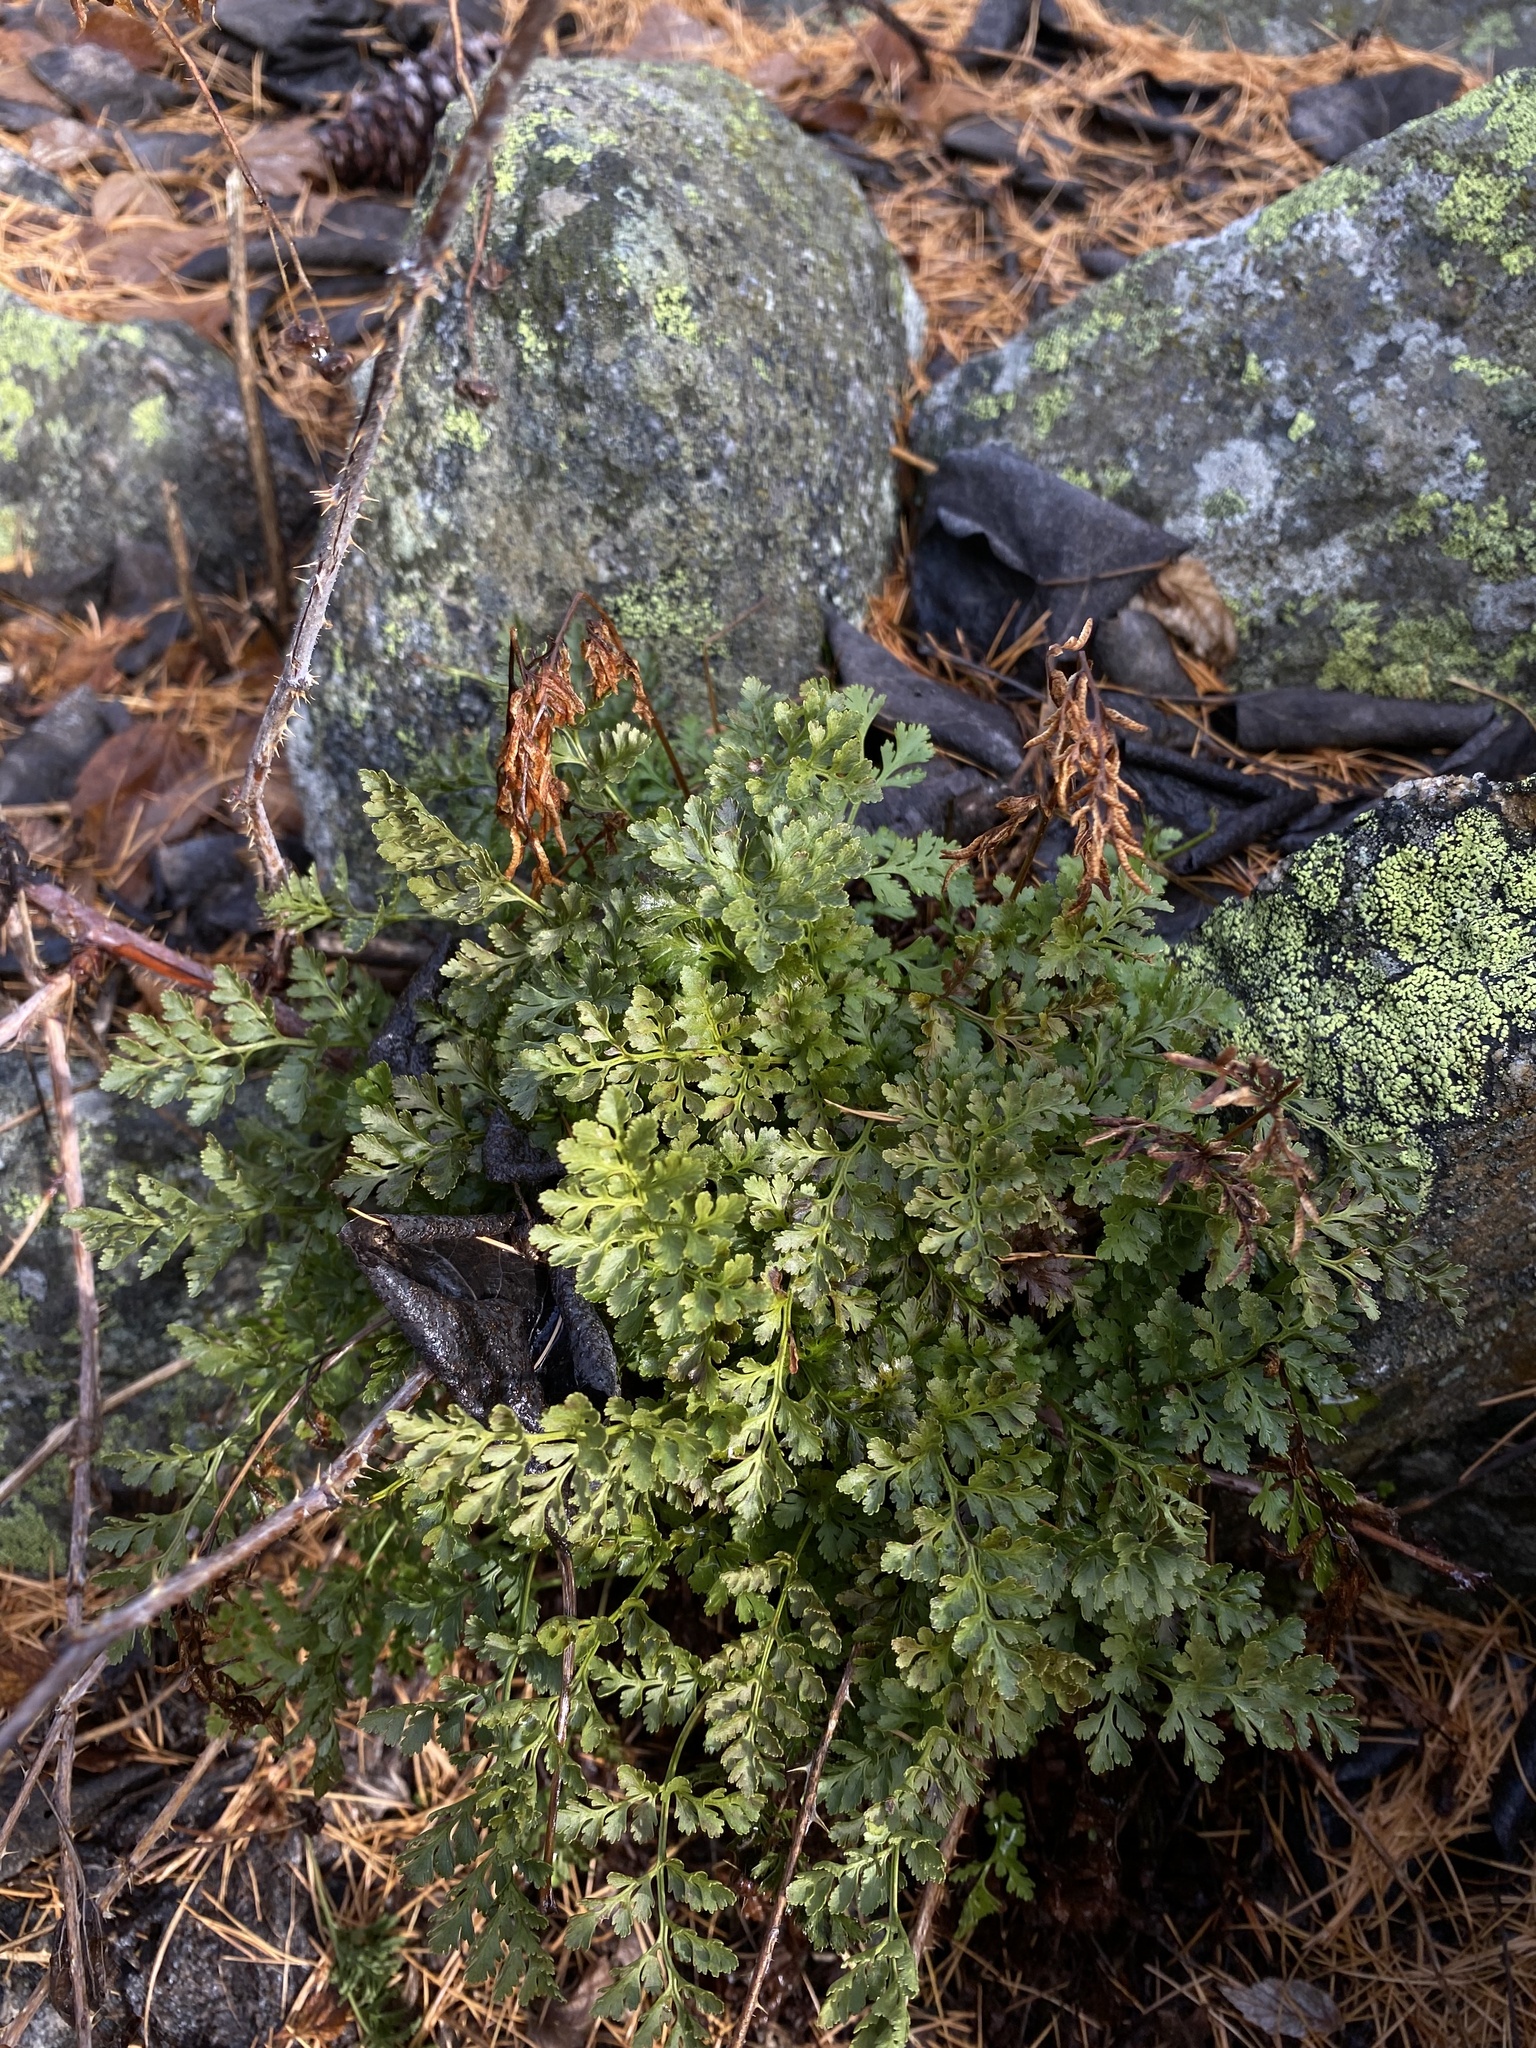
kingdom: Plantae
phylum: Tracheophyta
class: Polypodiopsida
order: Polypodiales
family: Pteridaceae
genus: Cryptogramma
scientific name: Cryptogramma acrostichoides
